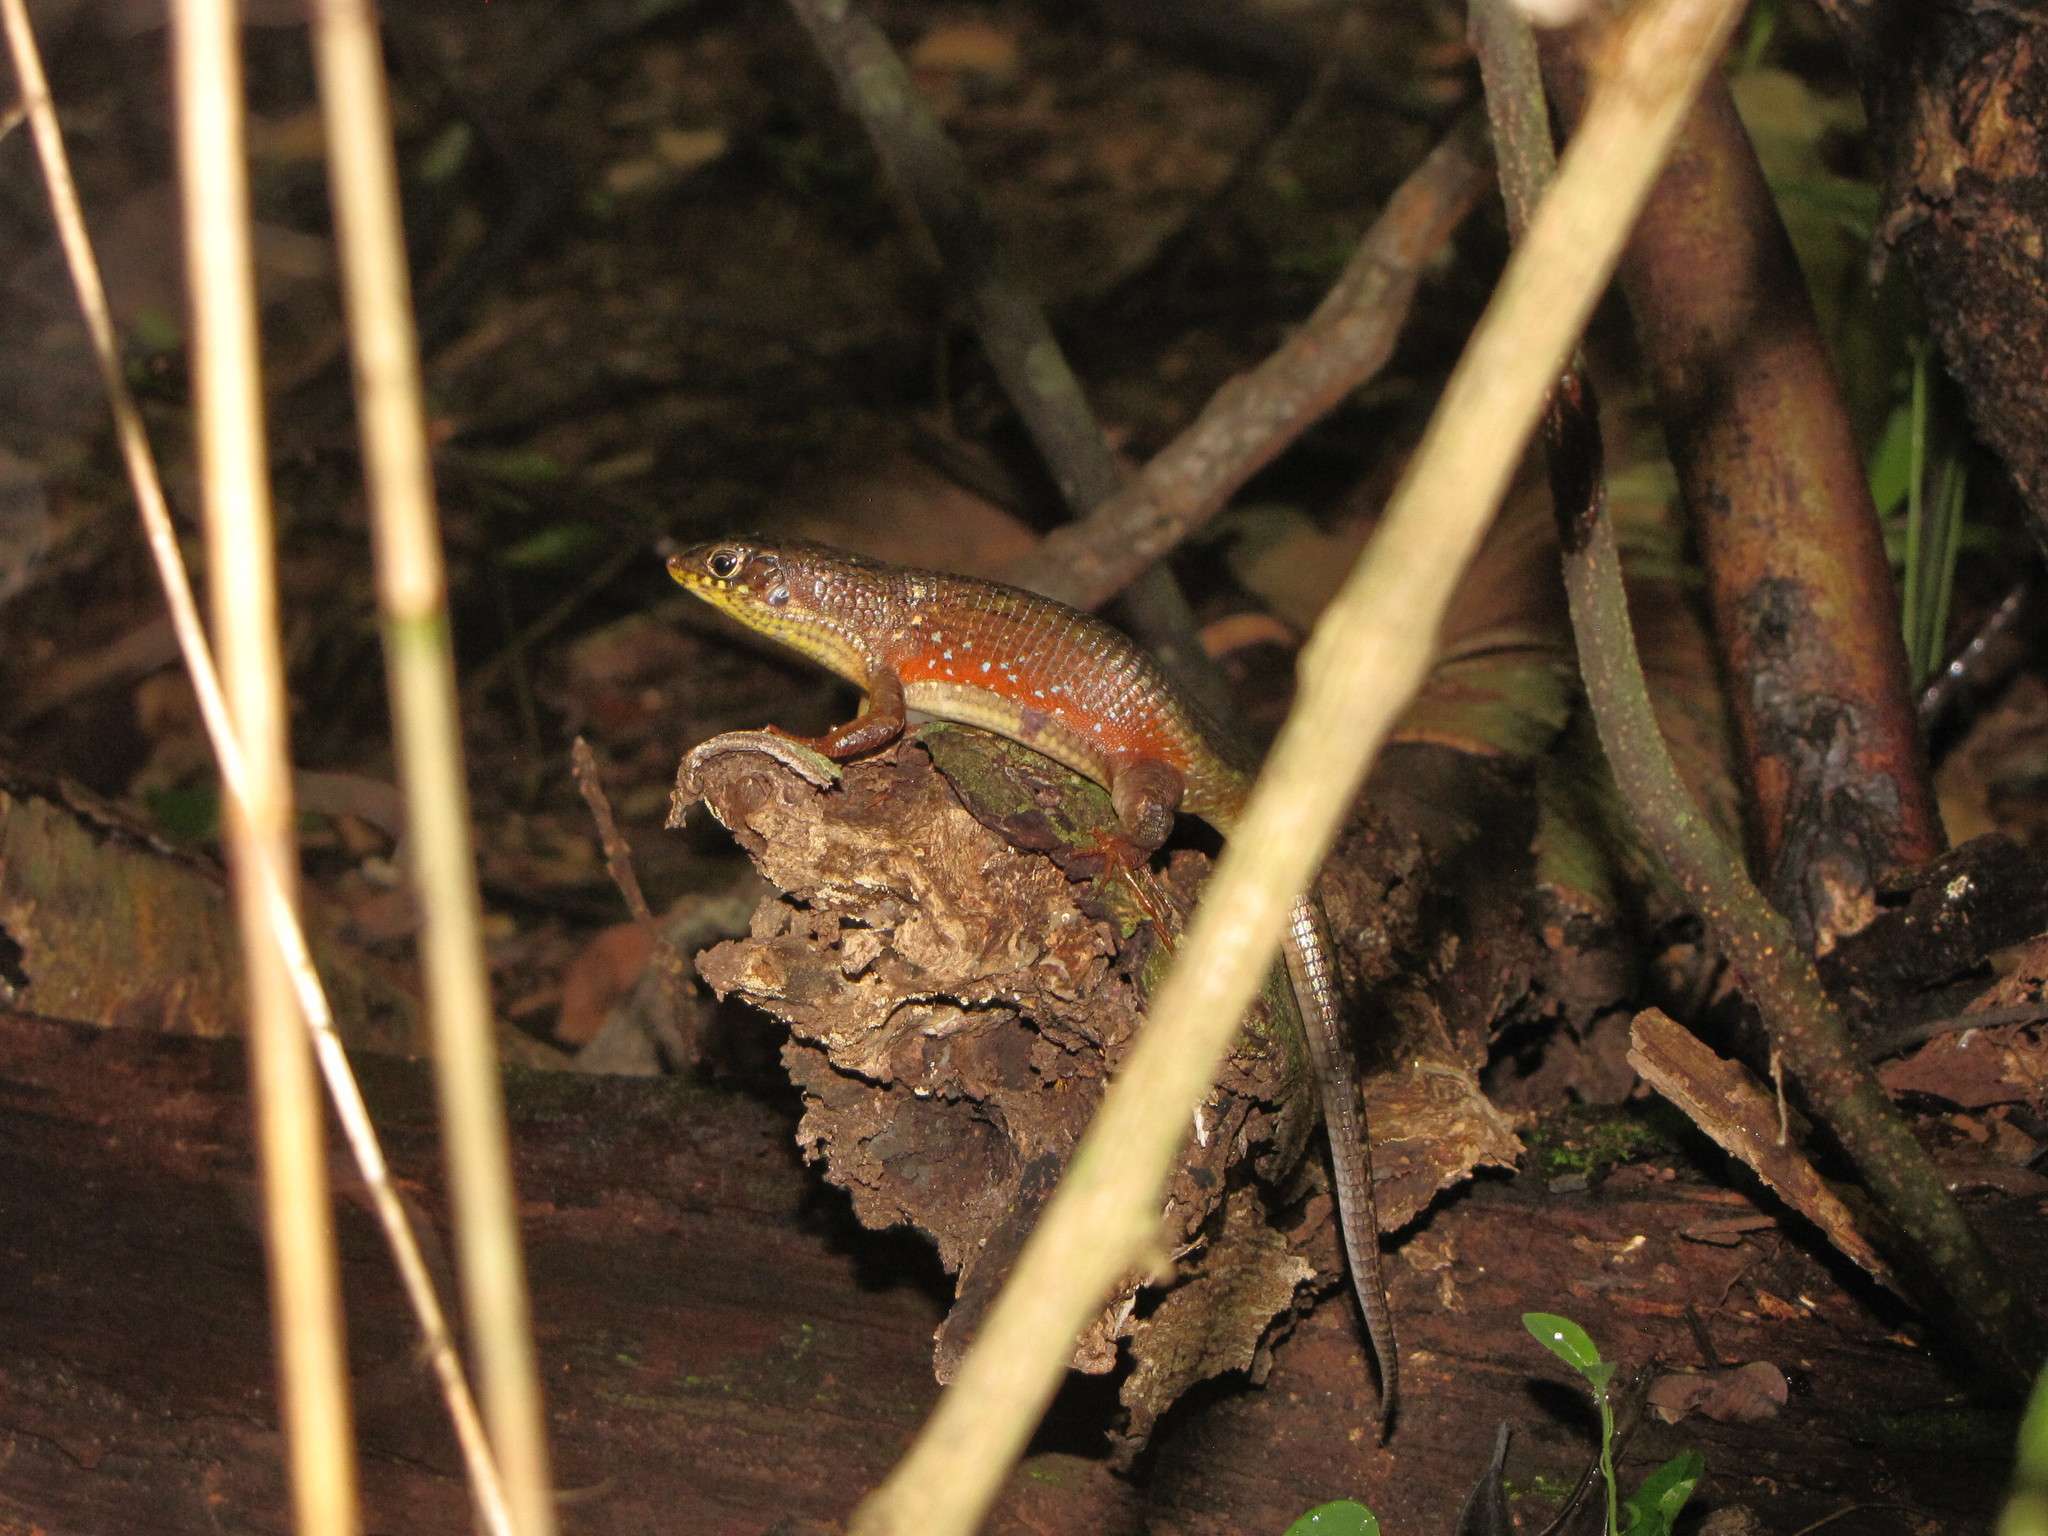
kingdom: Animalia
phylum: Chordata
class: Squamata
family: Gerrhosauridae
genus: Zonosaurus
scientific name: Zonosaurus rufipes
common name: Red-legged girdled lizard
